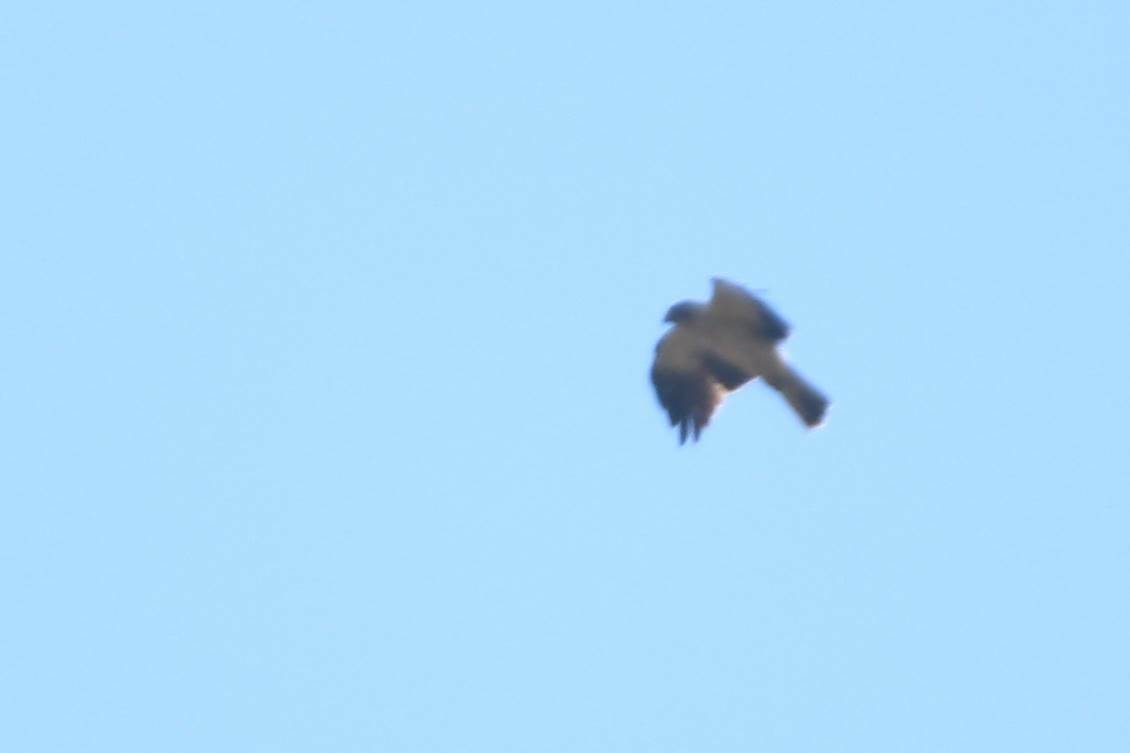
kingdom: Animalia
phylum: Chordata
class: Aves
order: Accipitriformes
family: Accipitridae
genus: Hieraaetus
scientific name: Hieraaetus pennatus
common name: Booted eagle
